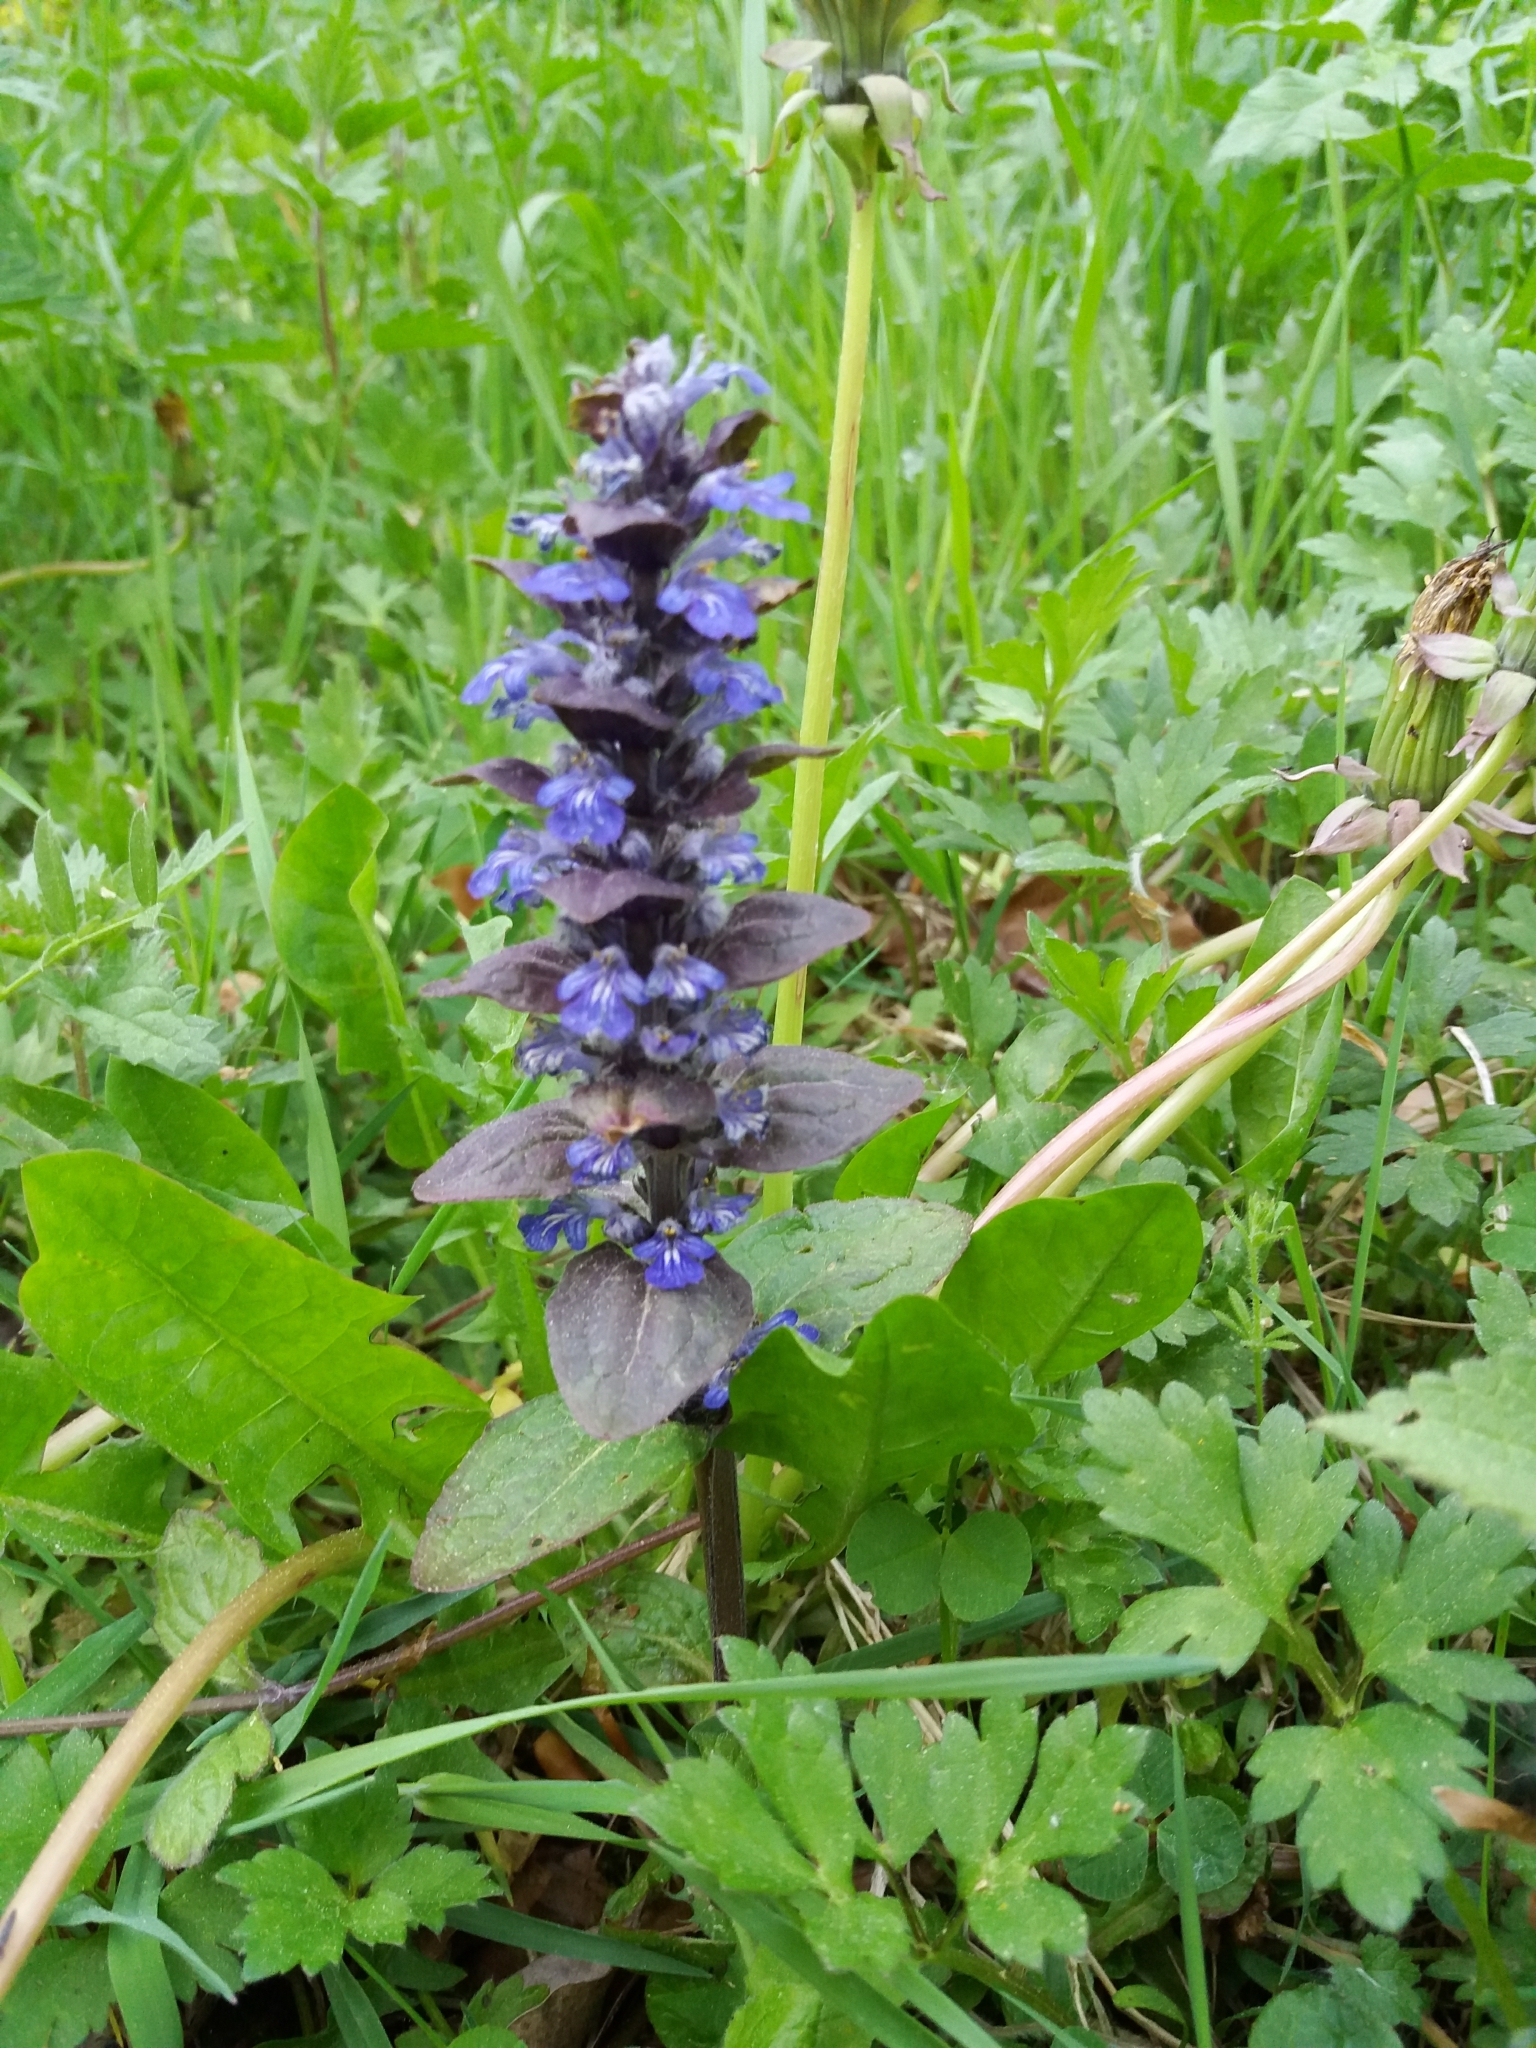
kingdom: Plantae
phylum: Tracheophyta
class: Magnoliopsida
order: Lamiales
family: Lamiaceae
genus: Ajuga
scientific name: Ajuga reptans
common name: Bugle
